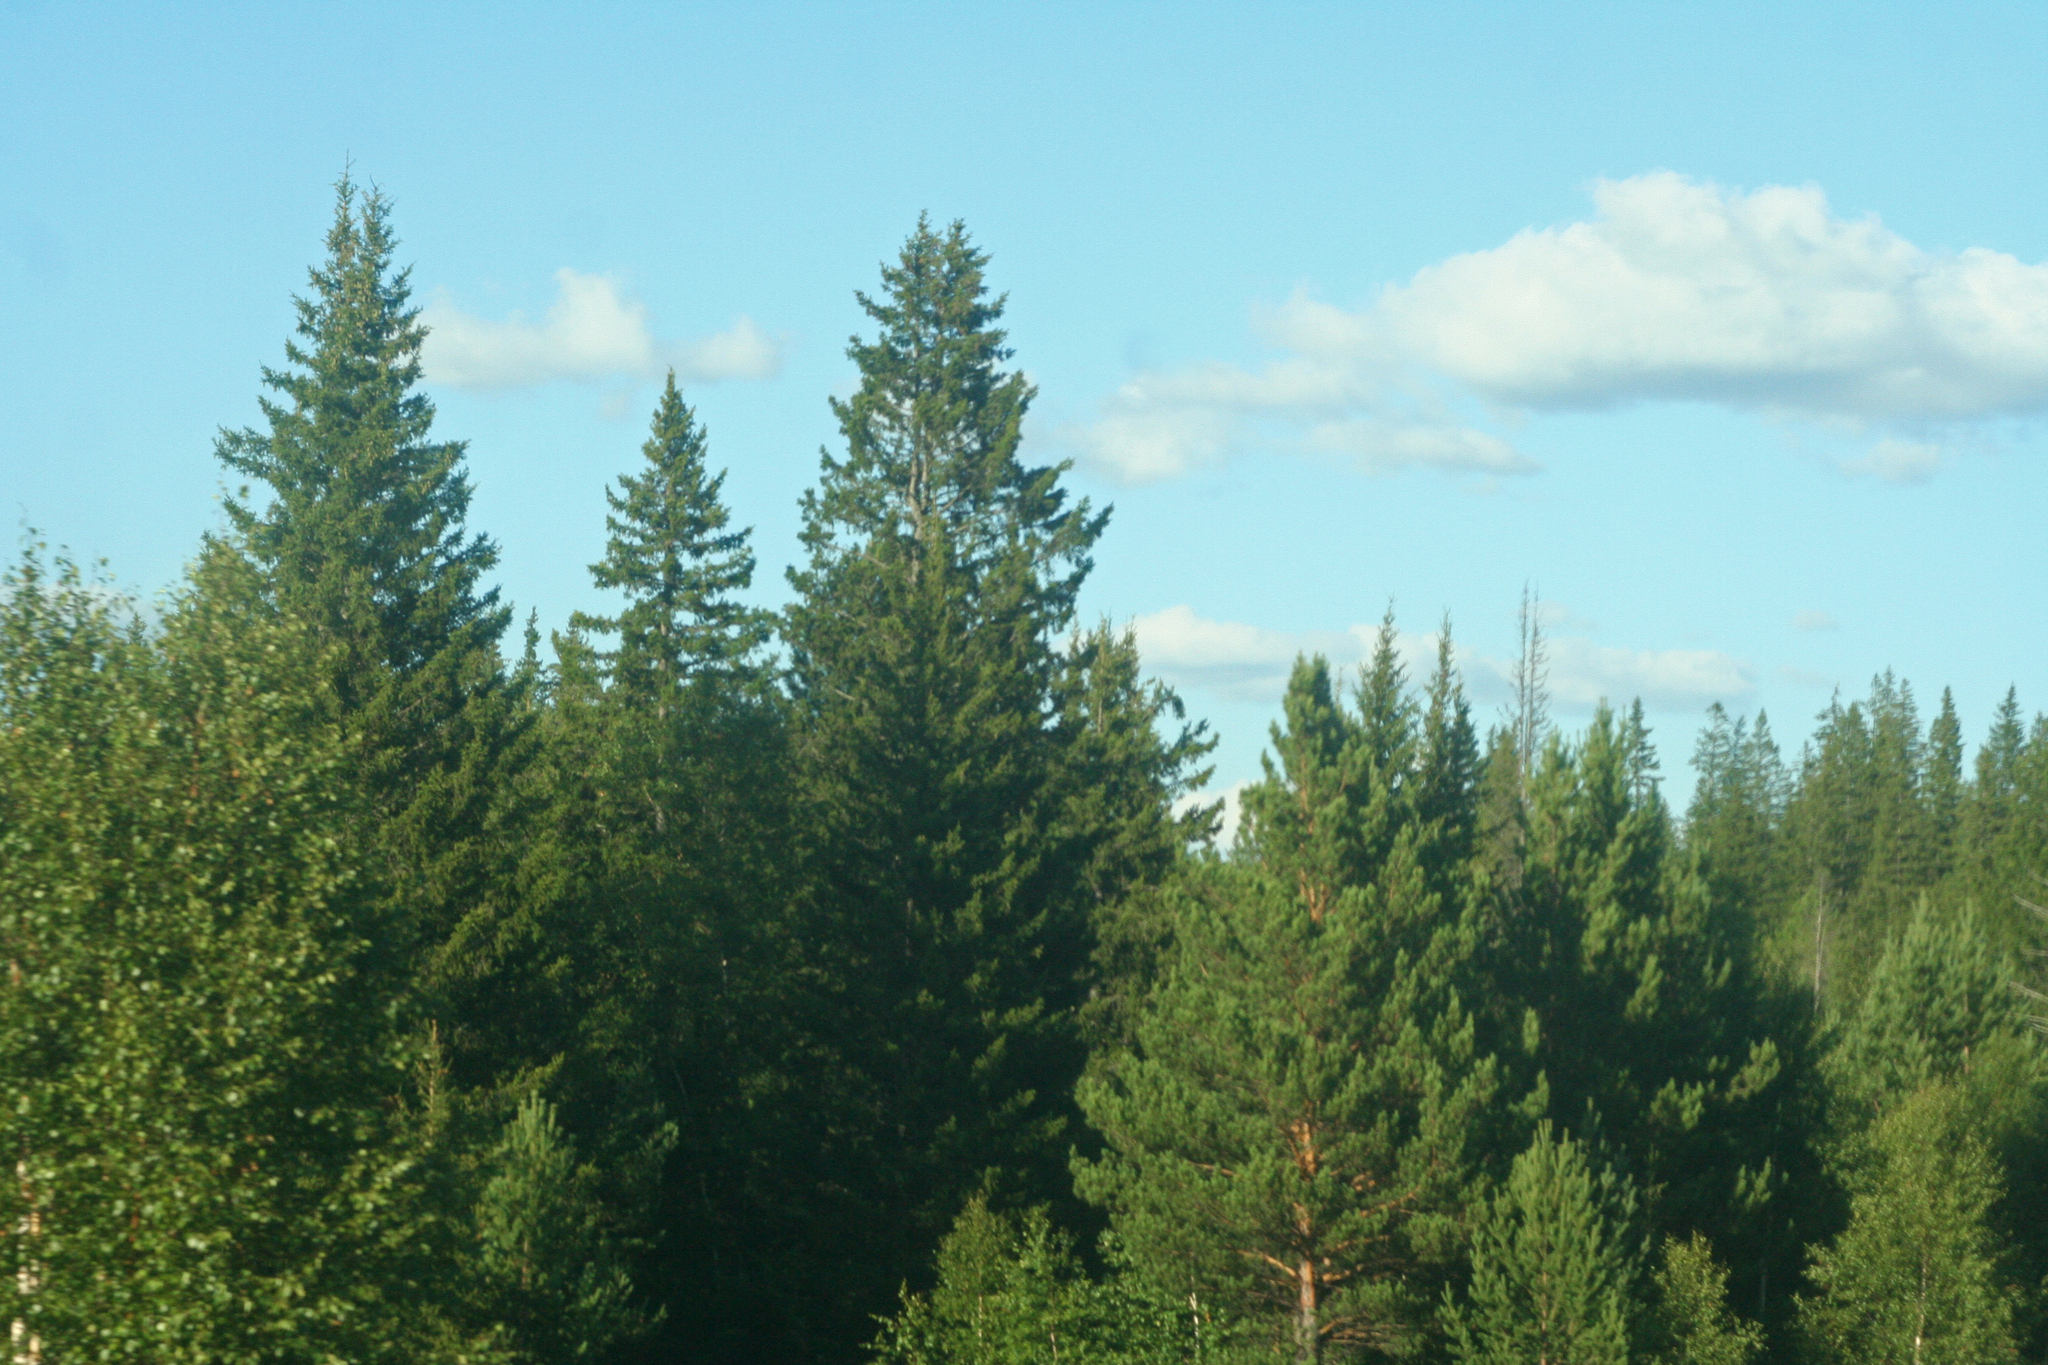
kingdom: Plantae
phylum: Tracheophyta
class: Pinopsida
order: Pinales
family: Pinaceae
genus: Picea
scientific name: Picea obovata
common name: Siberian spruce
